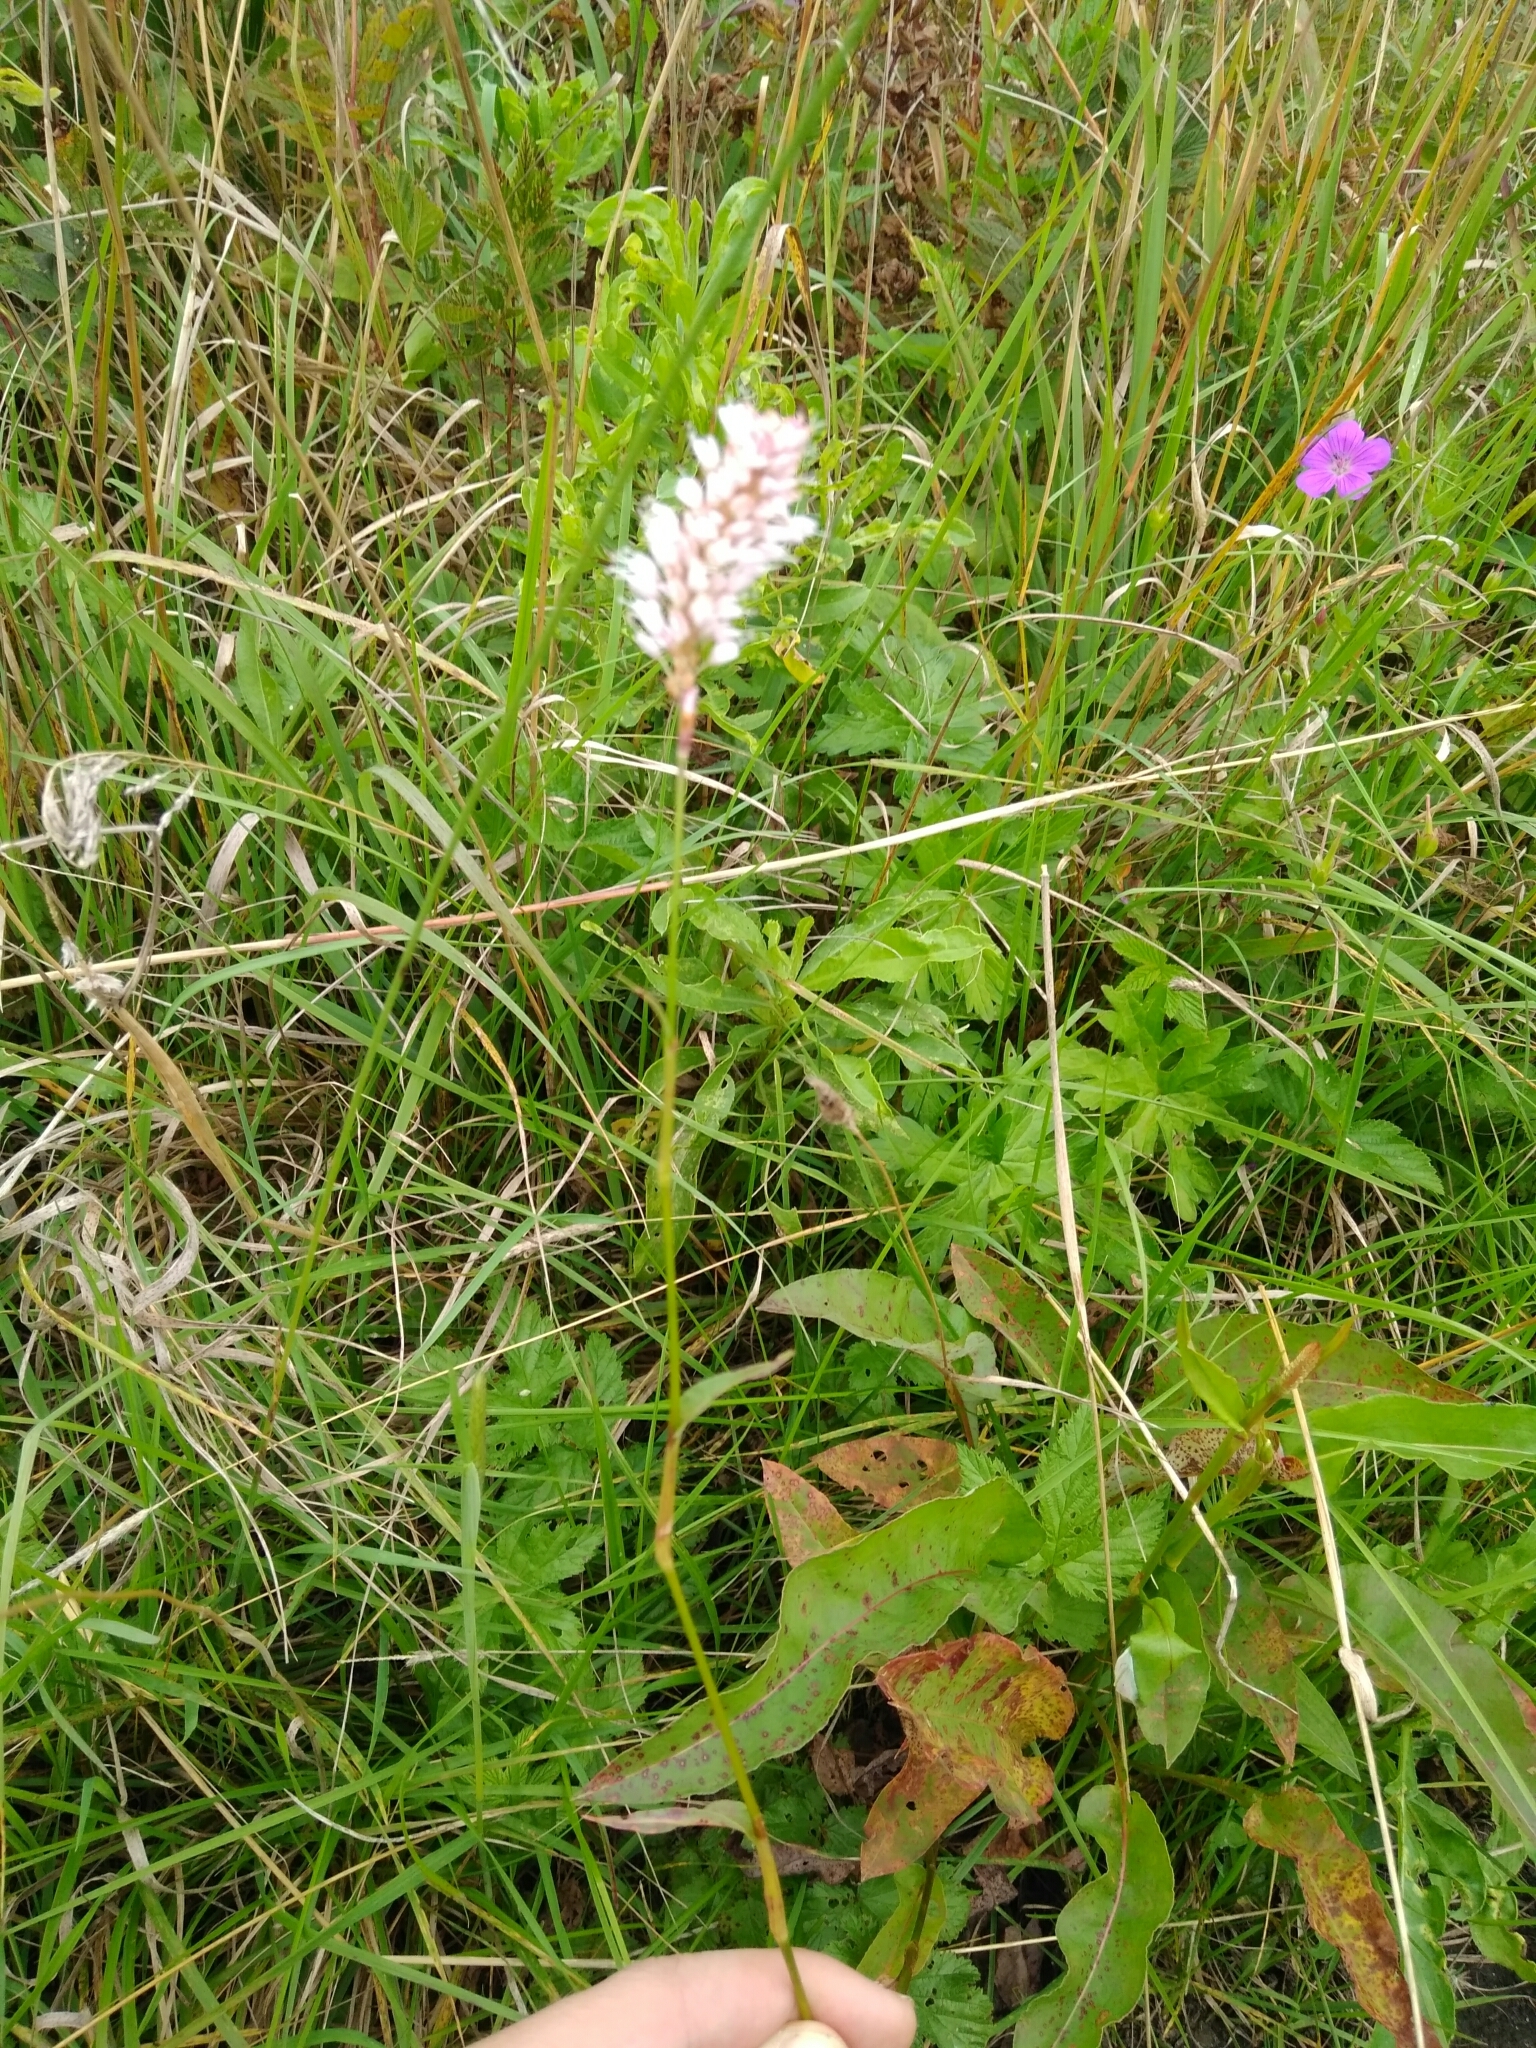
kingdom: Plantae
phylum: Tracheophyta
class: Magnoliopsida
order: Caryophyllales
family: Polygonaceae
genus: Bistorta
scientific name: Bistorta officinalis
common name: Common bistort
